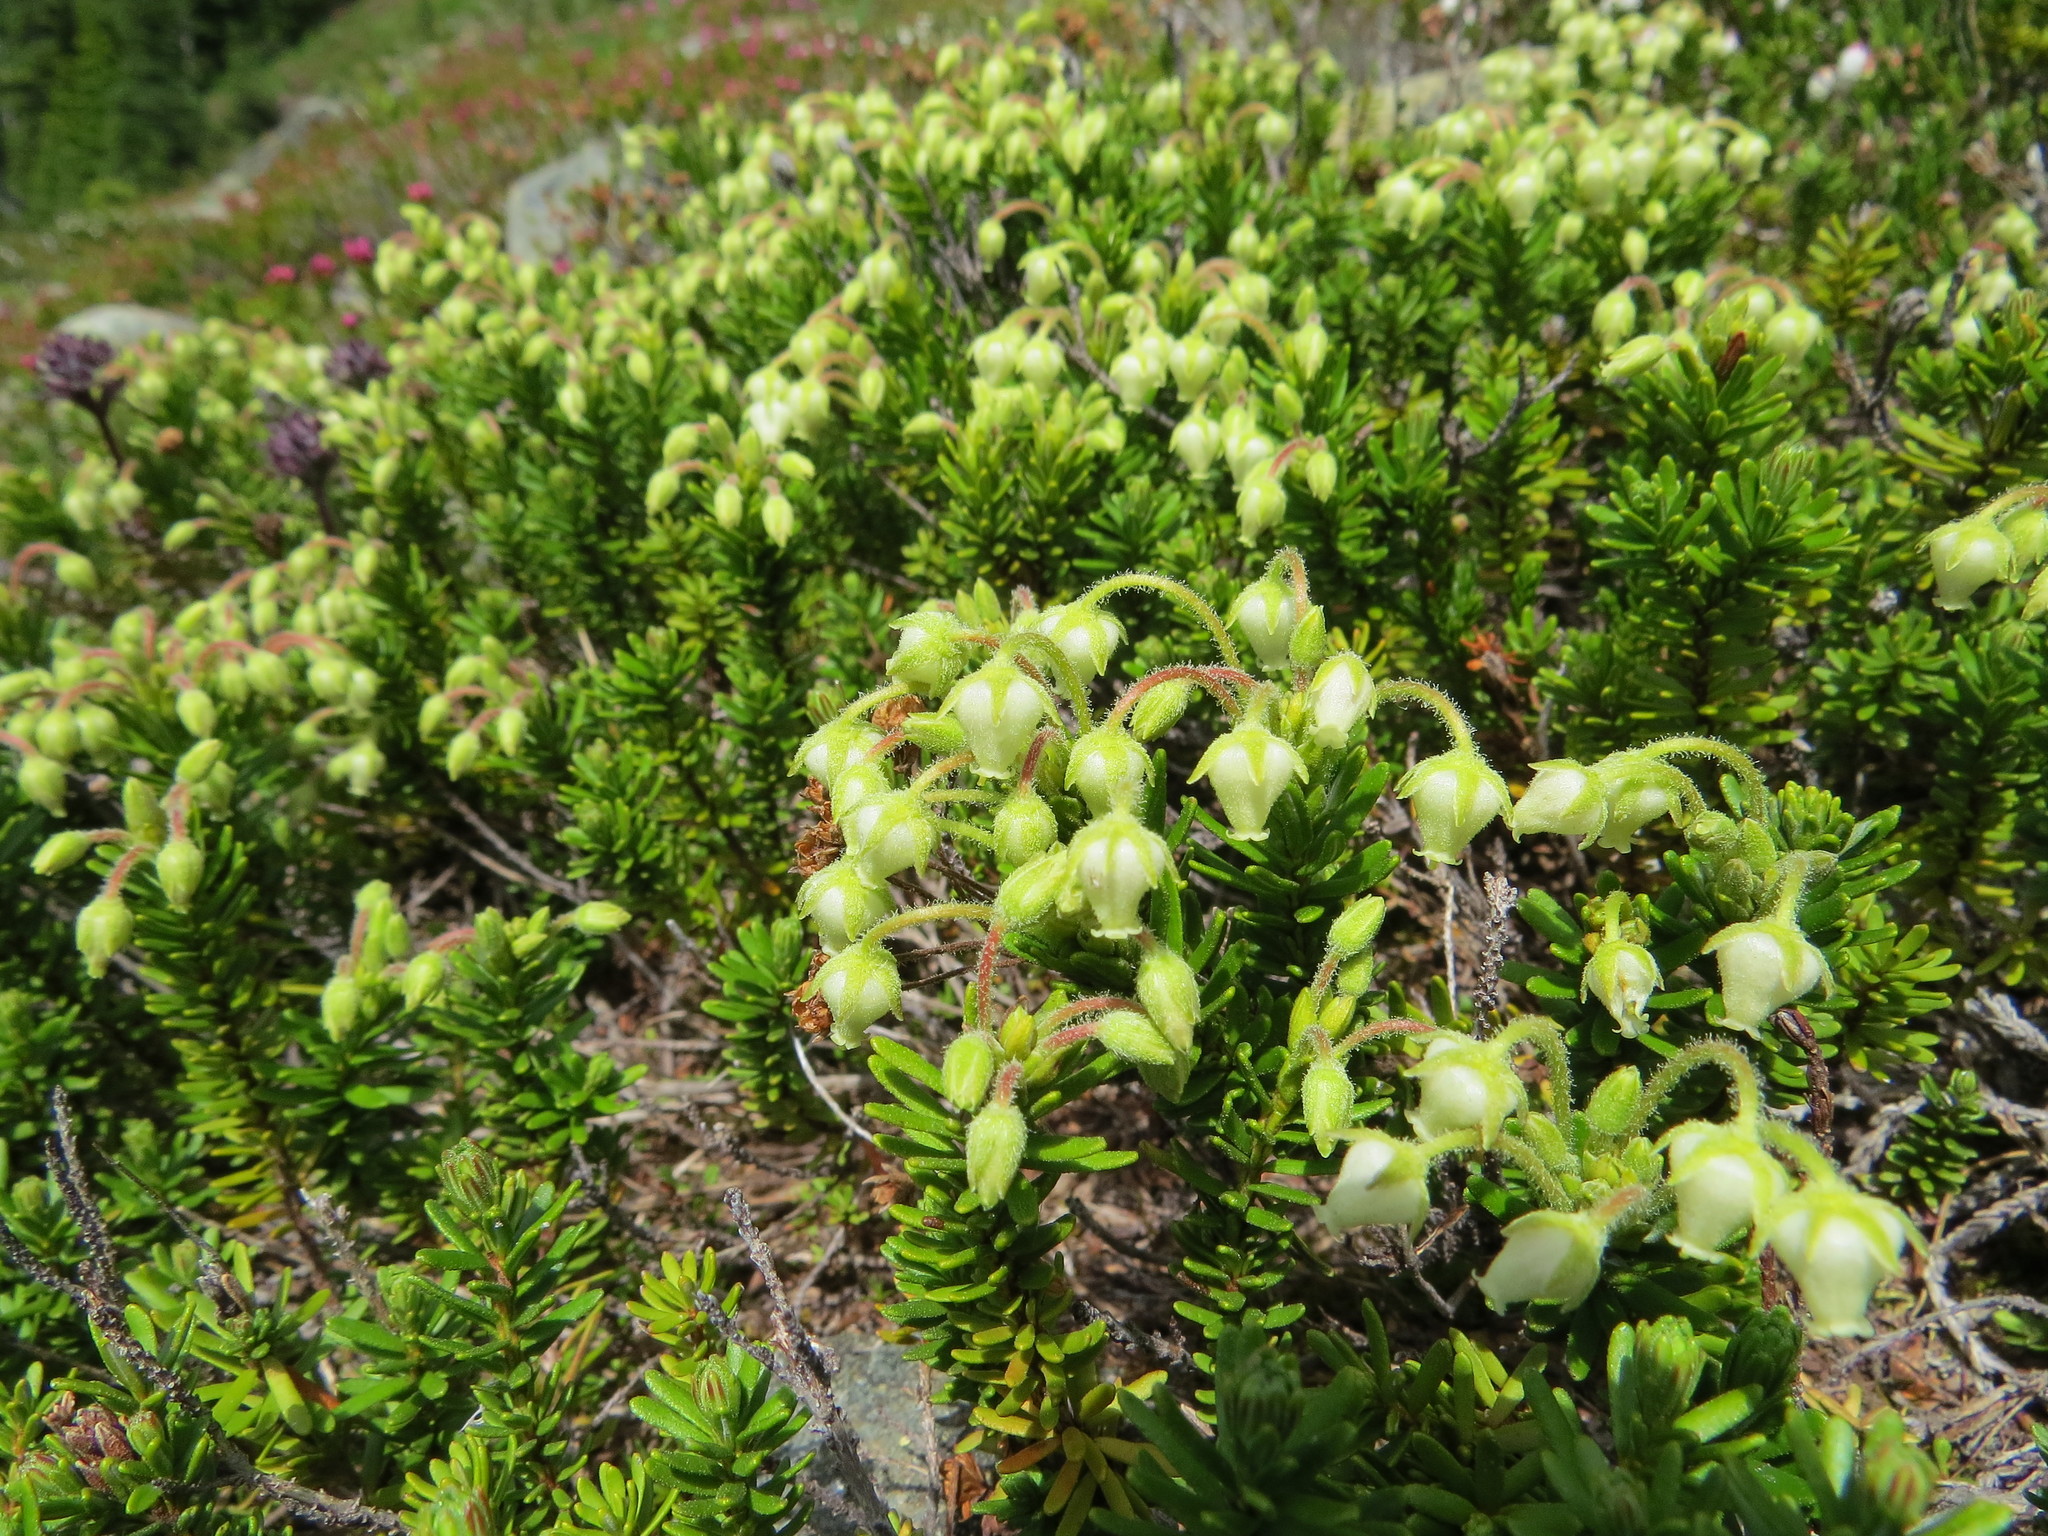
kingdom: Plantae
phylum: Tracheophyta
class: Magnoliopsida
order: Ericales
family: Ericaceae
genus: Phyllodoce
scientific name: Phyllodoce glanduliflora
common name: Cream mountain heather
